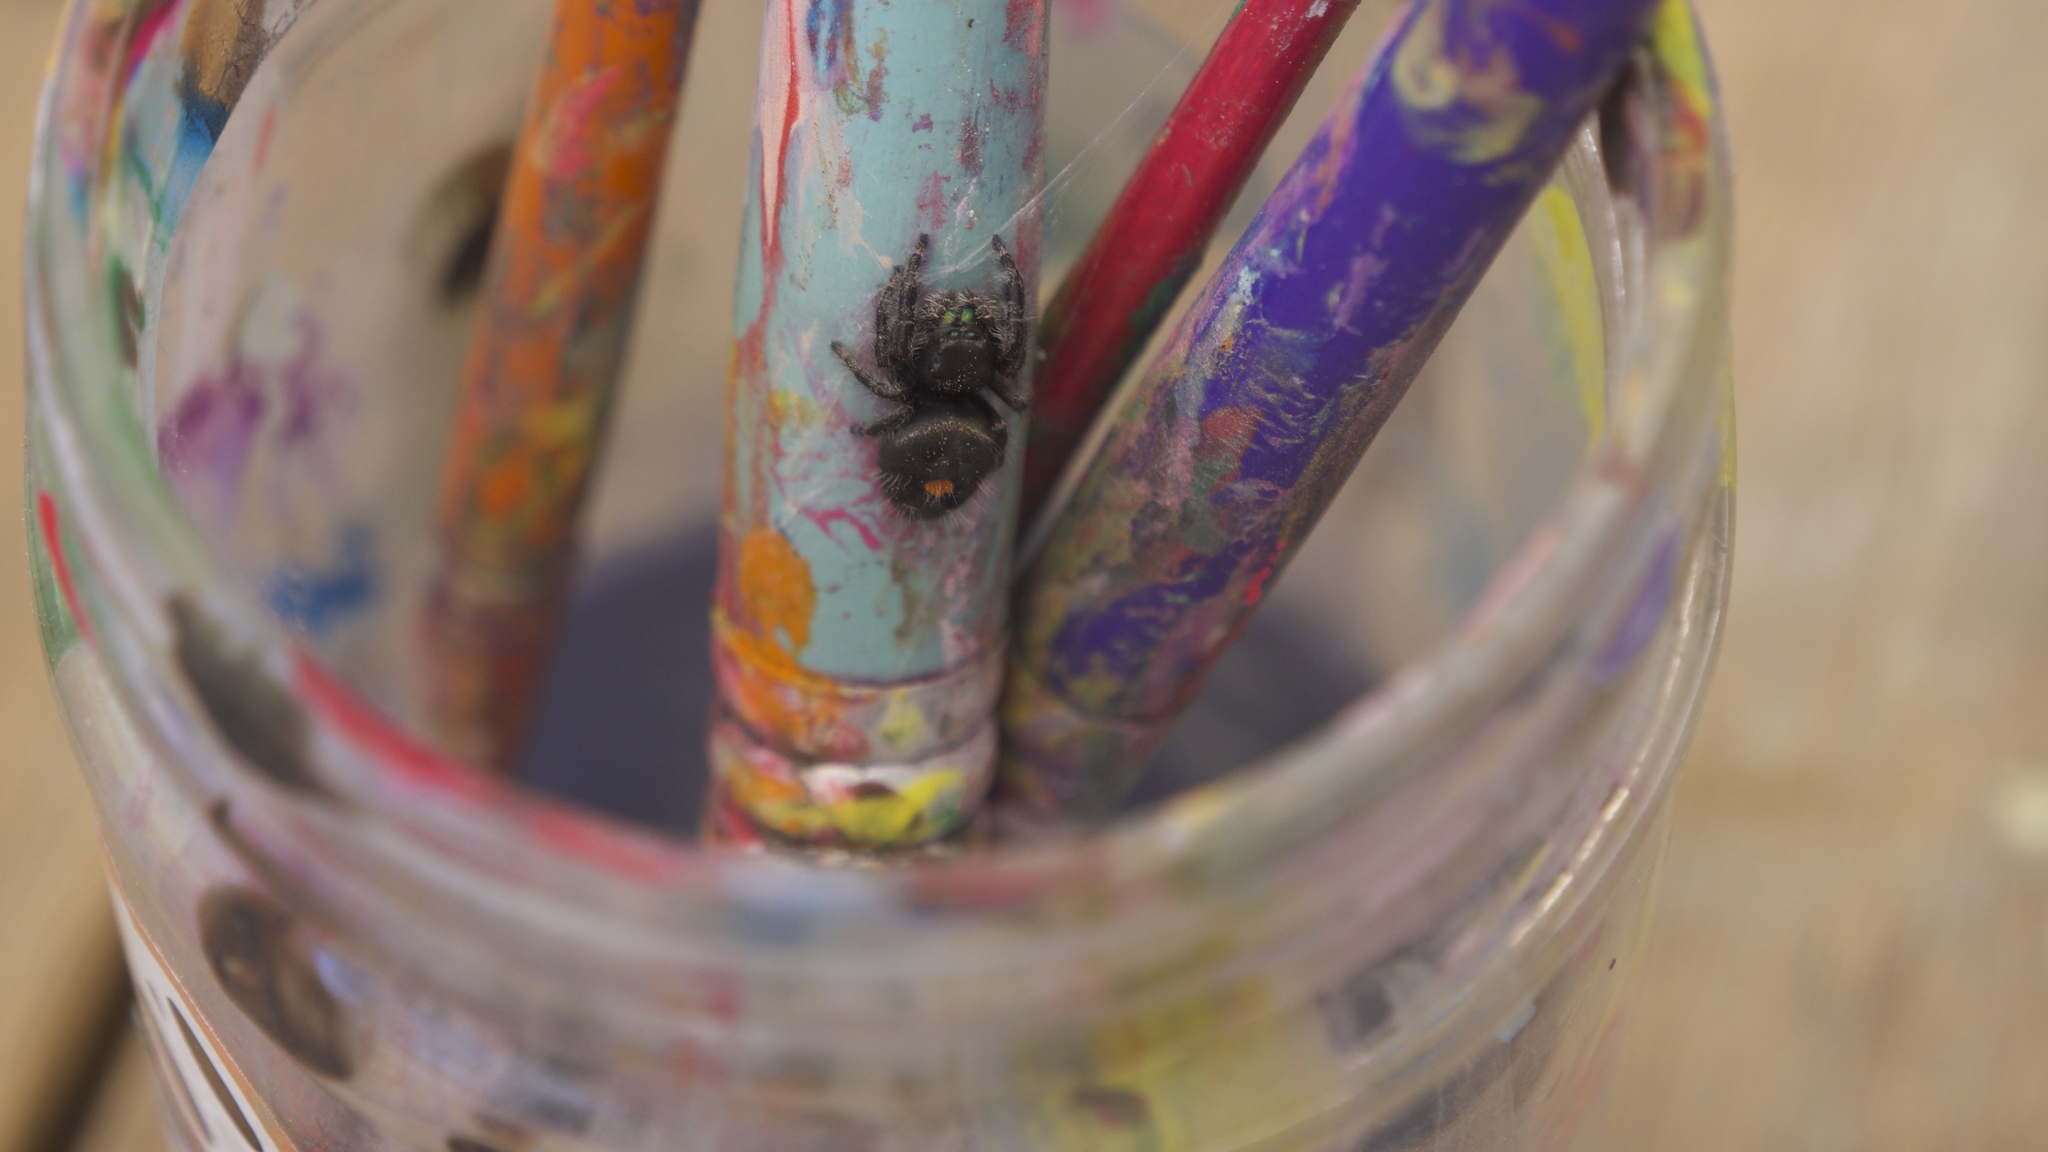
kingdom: Animalia
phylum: Arthropoda
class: Arachnida
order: Araneae
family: Salticidae
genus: Phidippus
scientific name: Phidippus audax
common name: Bold jumper
